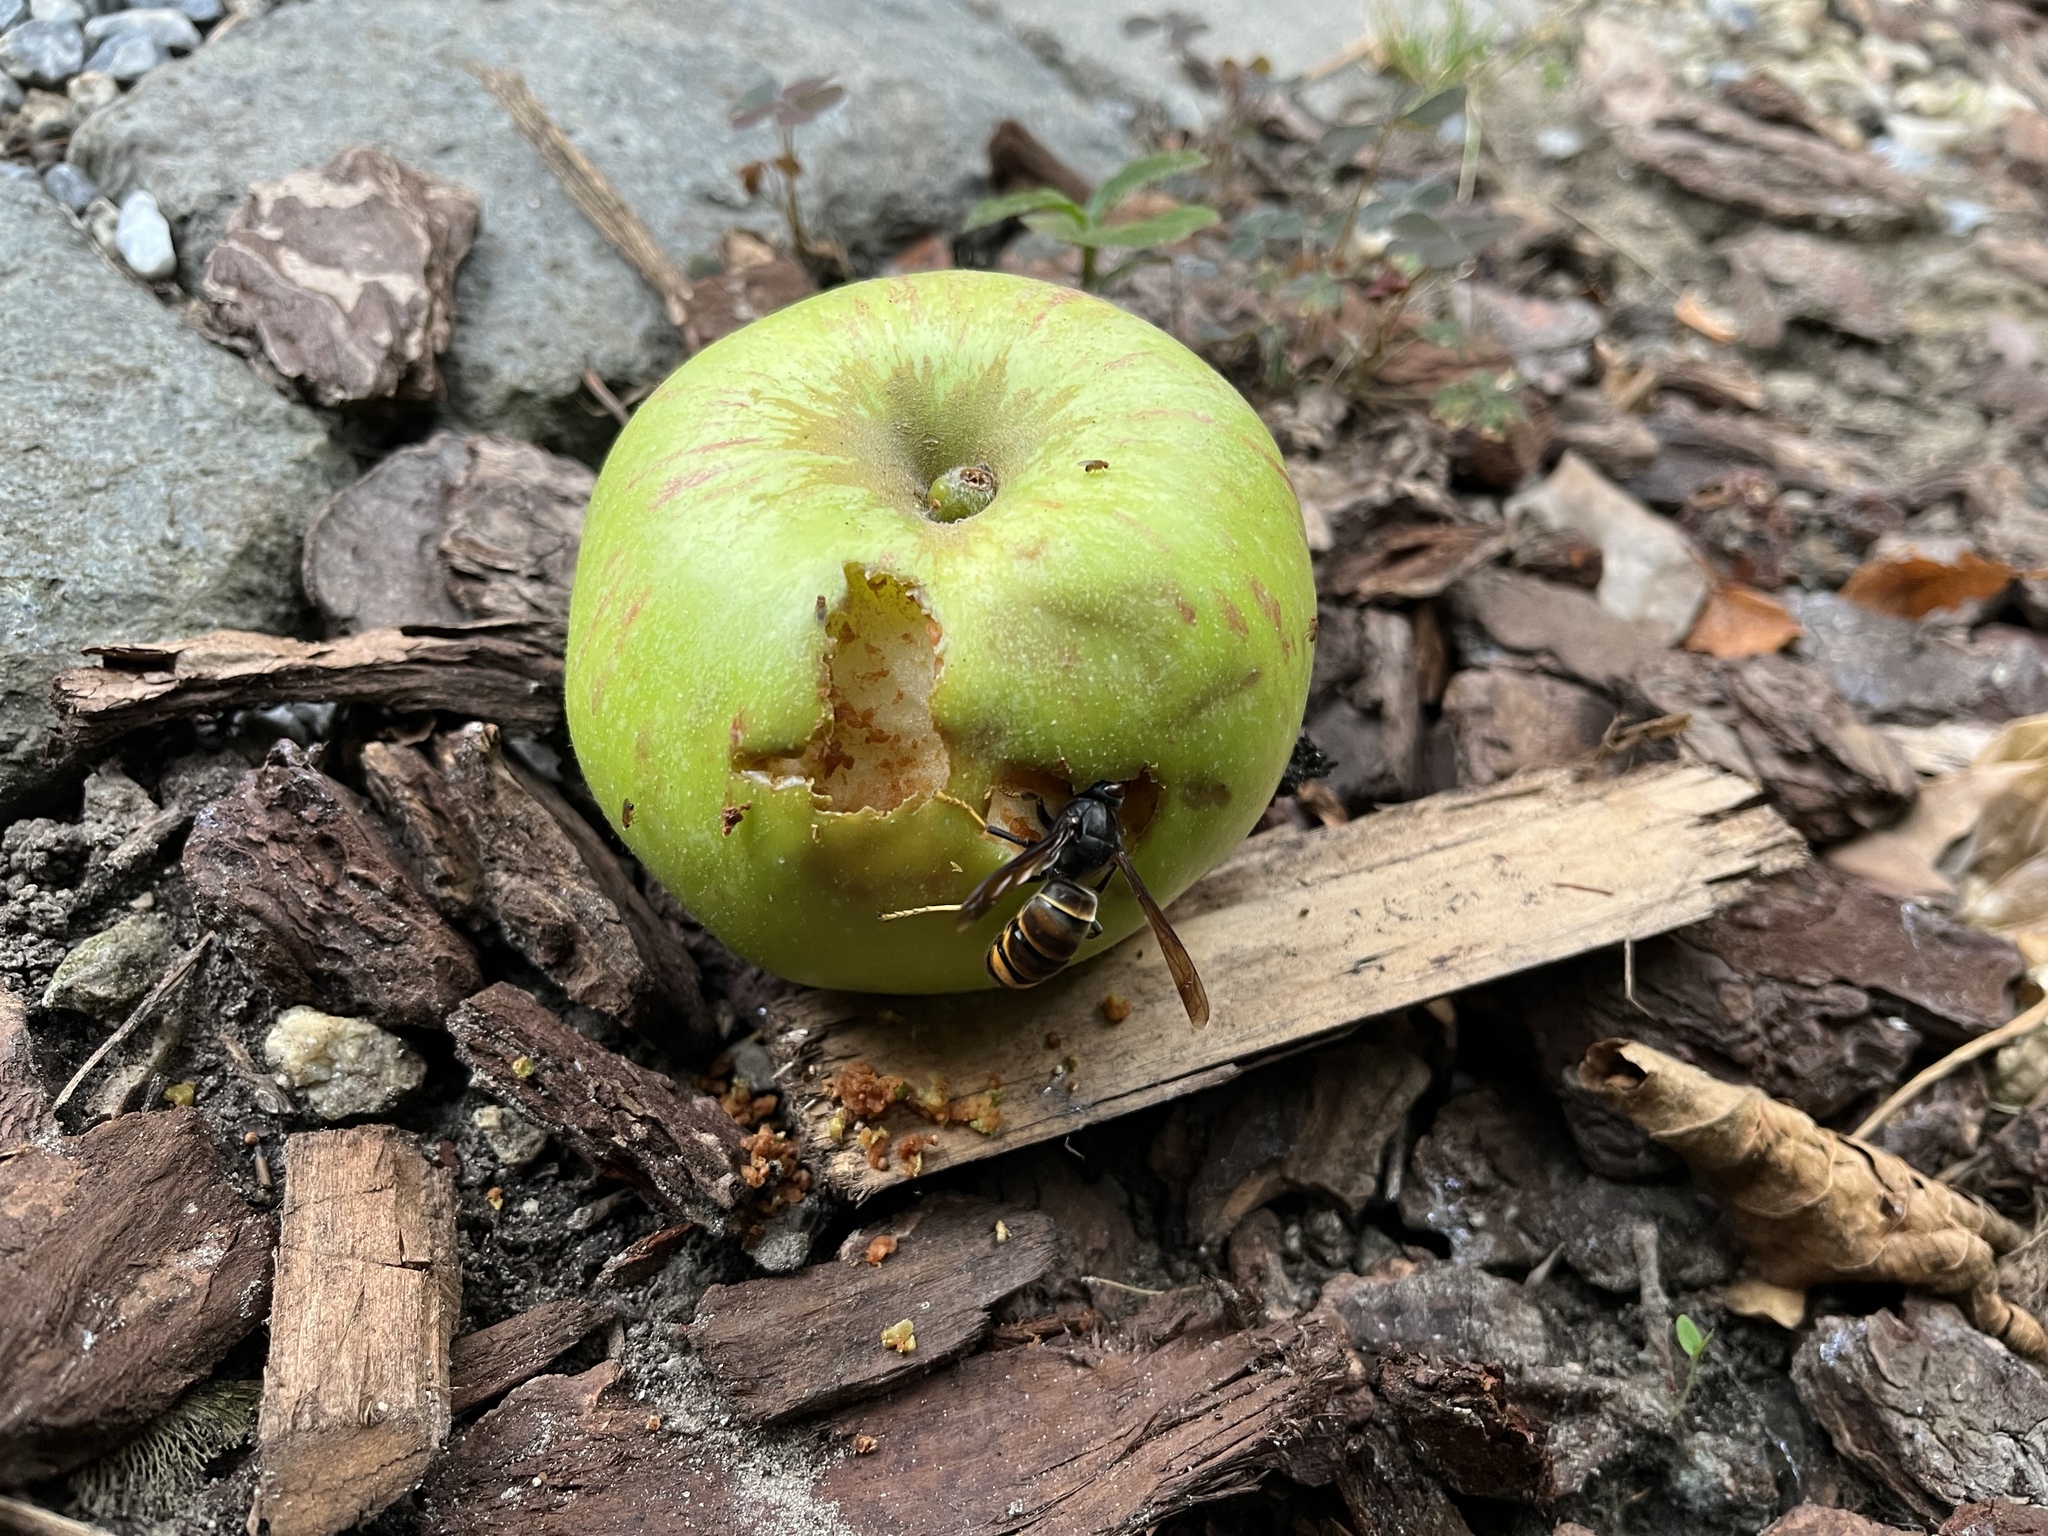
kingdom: Animalia
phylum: Arthropoda
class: Insecta
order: Hymenoptera
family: Vespidae
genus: Vespa
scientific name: Vespa velutina
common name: Asian hornet
